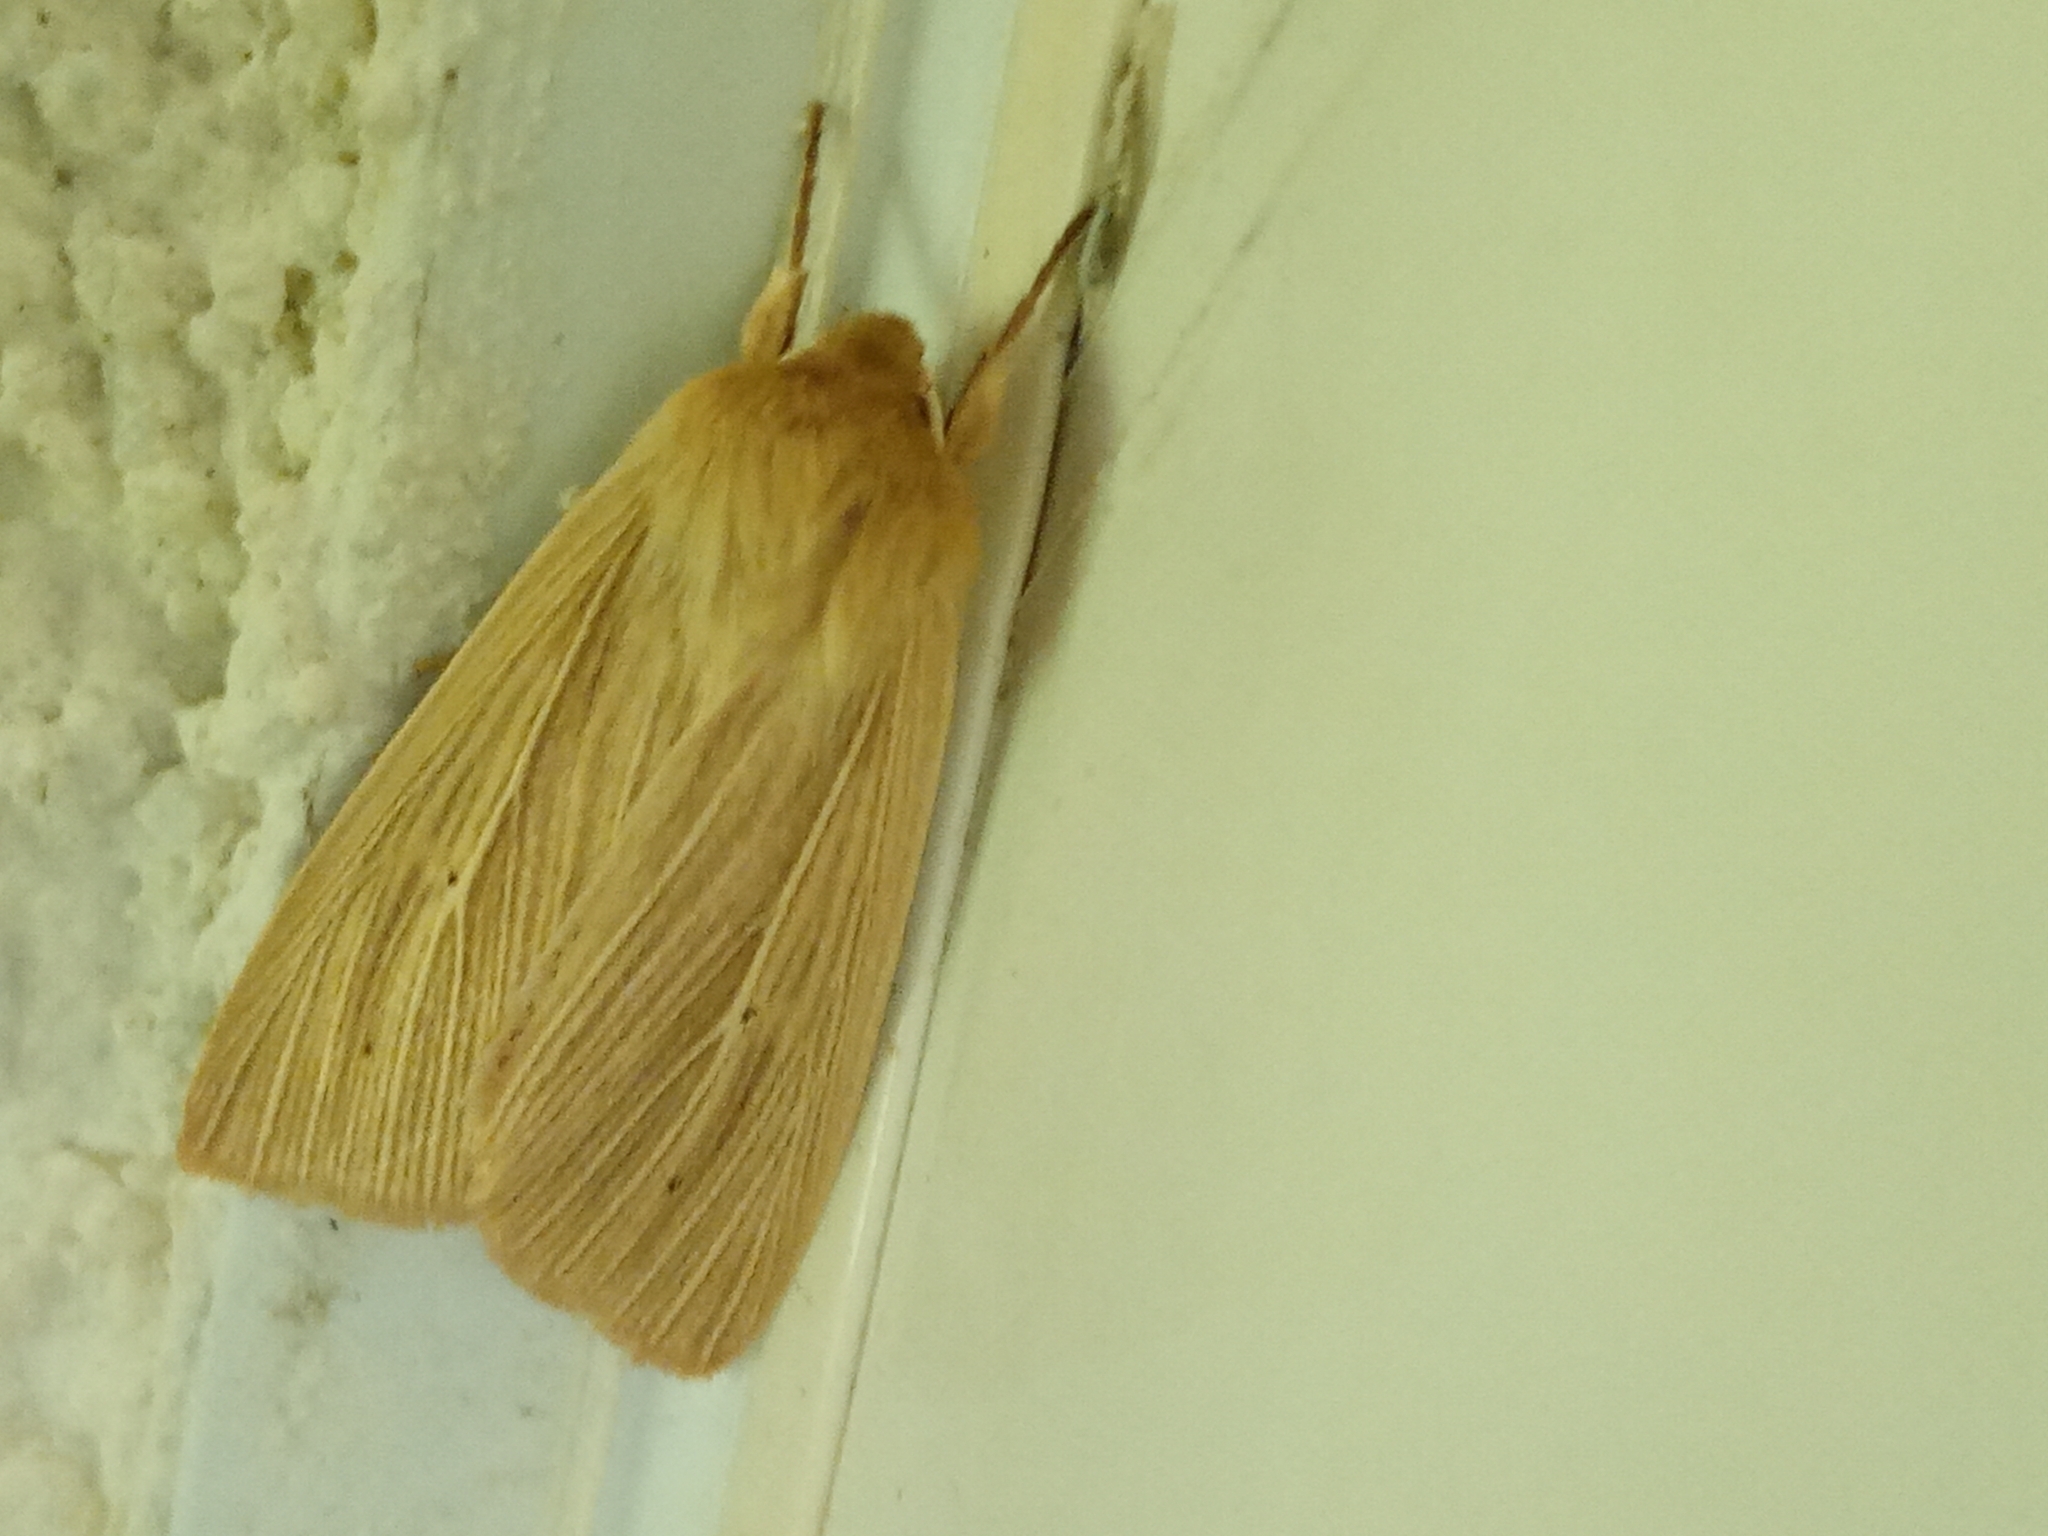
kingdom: Animalia
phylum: Arthropoda
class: Insecta
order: Lepidoptera
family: Noctuidae
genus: Mythimna
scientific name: Mythimna pallens
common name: Common wainscot
